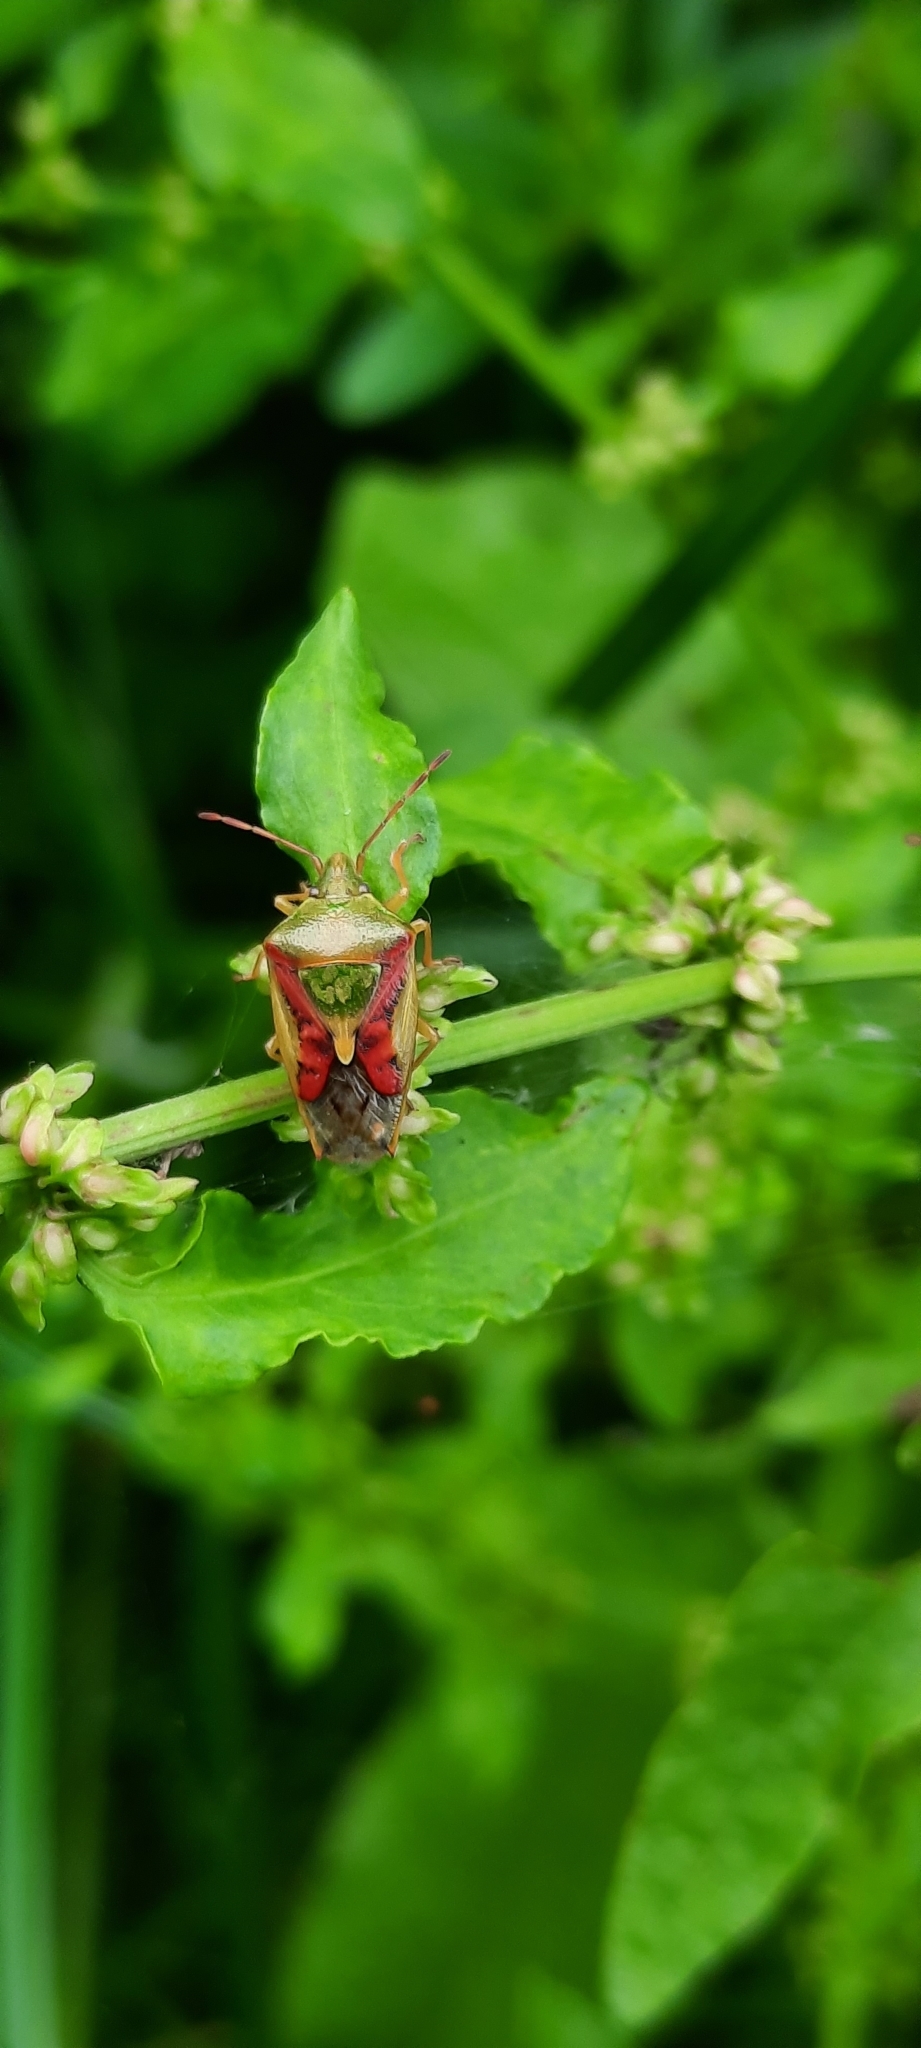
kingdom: Animalia
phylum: Arthropoda
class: Insecta
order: Hemiptera
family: Acanthosomatidae
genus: Cyphostethus
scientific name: Cyphostethus tristriatus
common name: Juniper shieldbug
